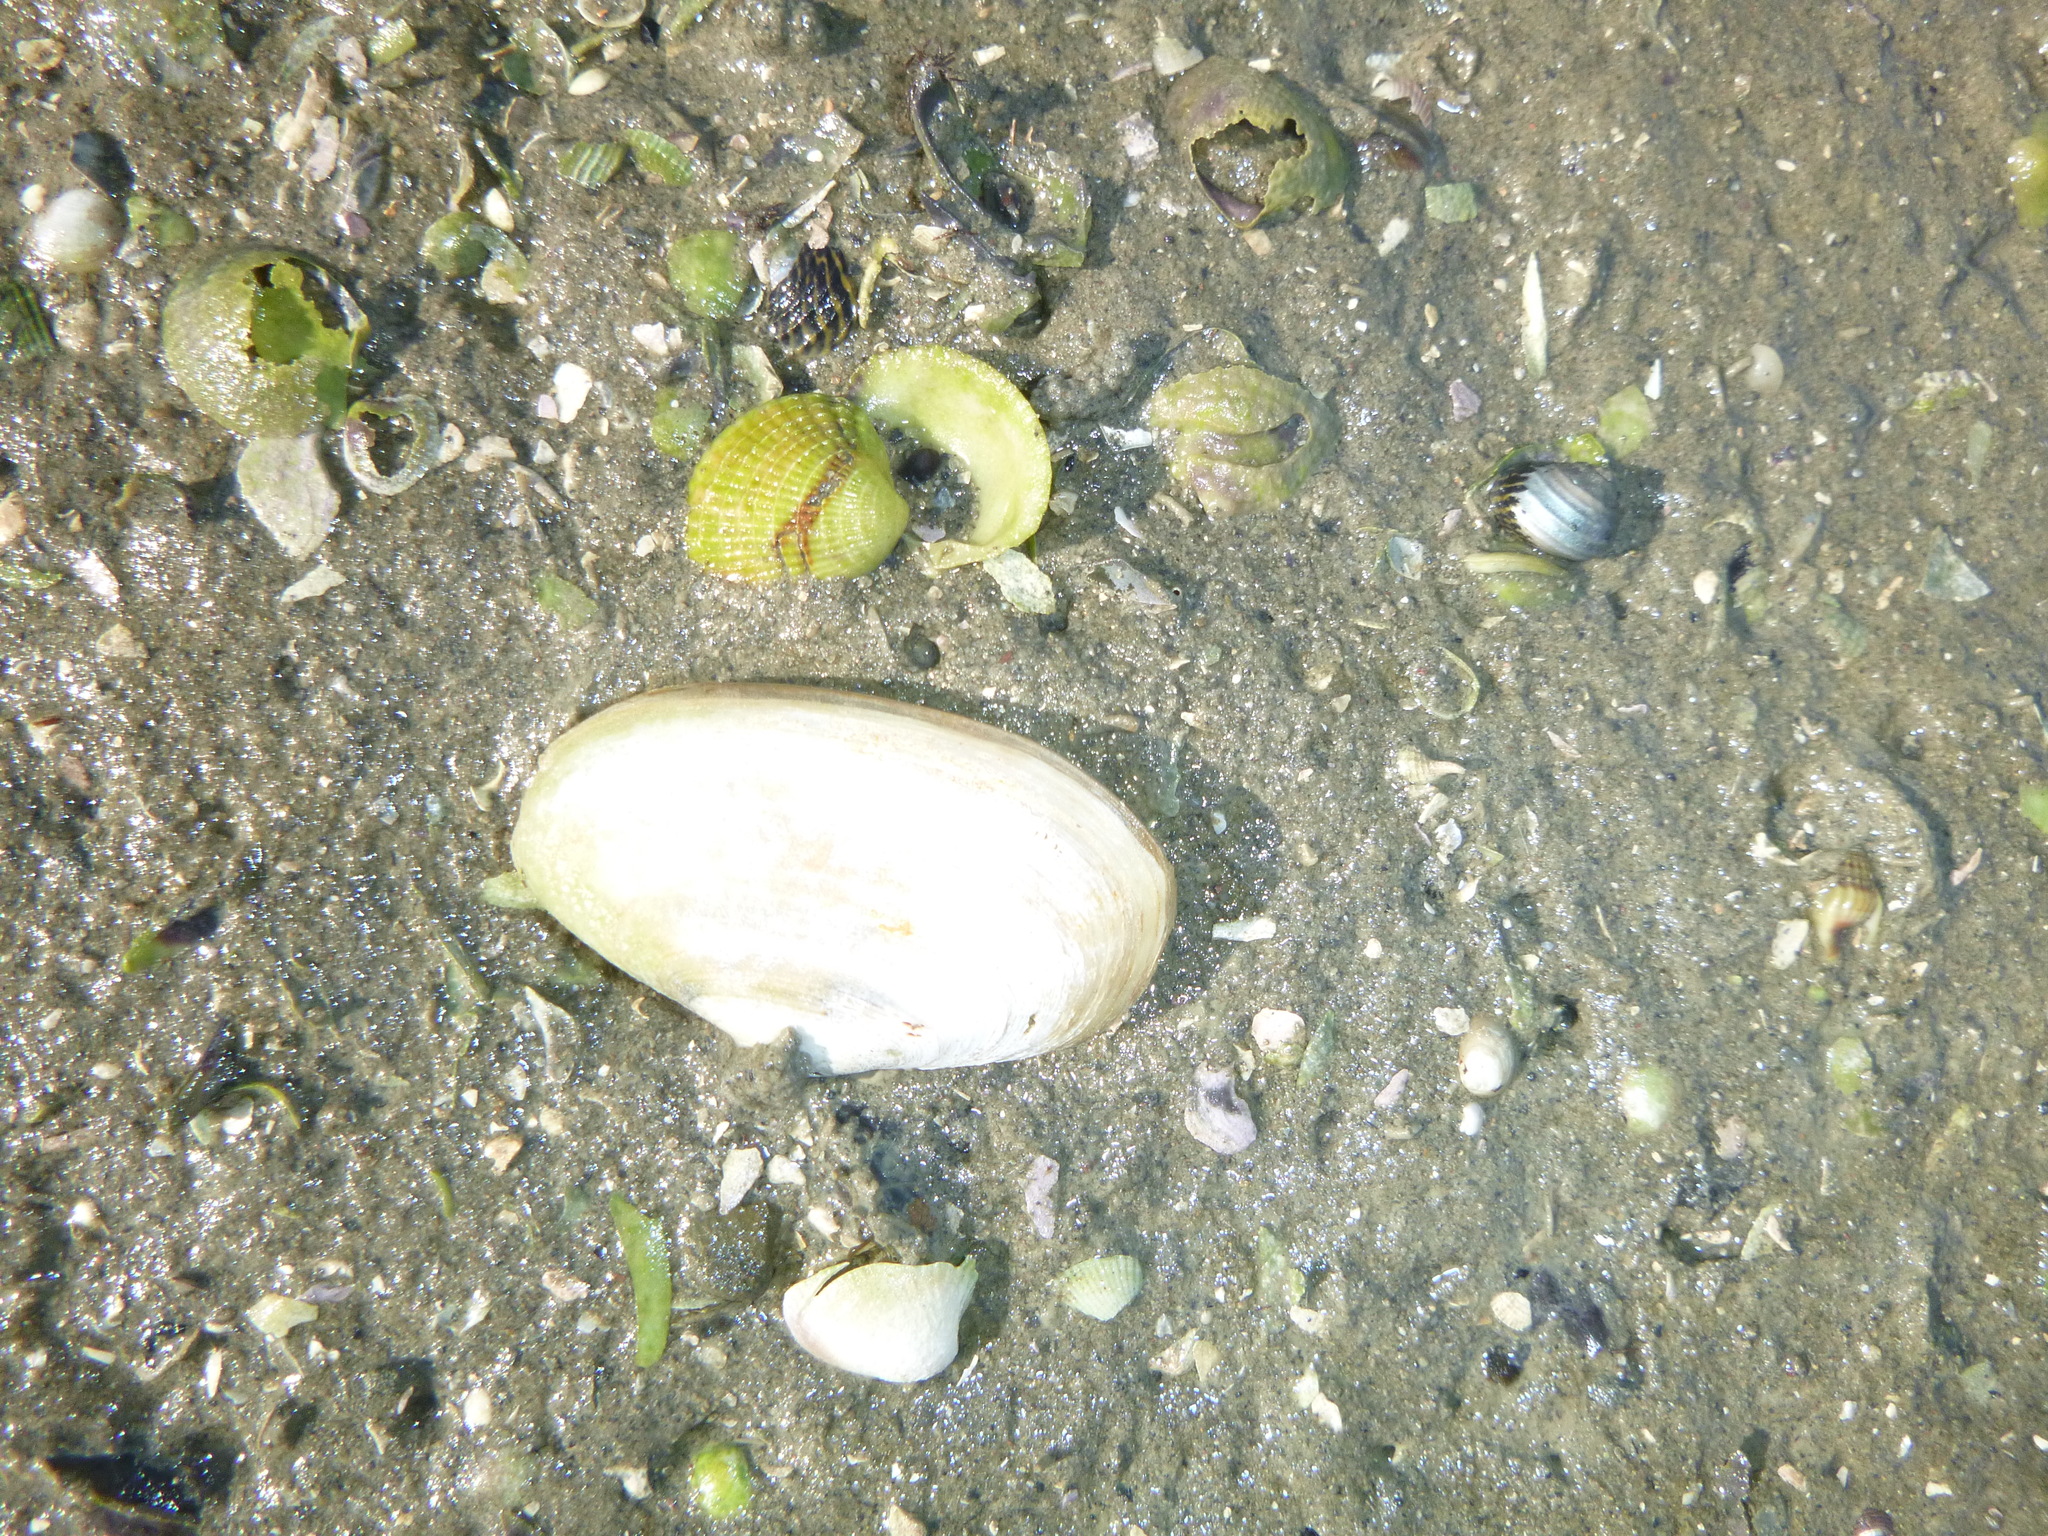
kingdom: Animalia
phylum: Mollusca
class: Bivalvia
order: Venerida
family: Mesodesmatidae
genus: Paphies
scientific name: Paphies australis
